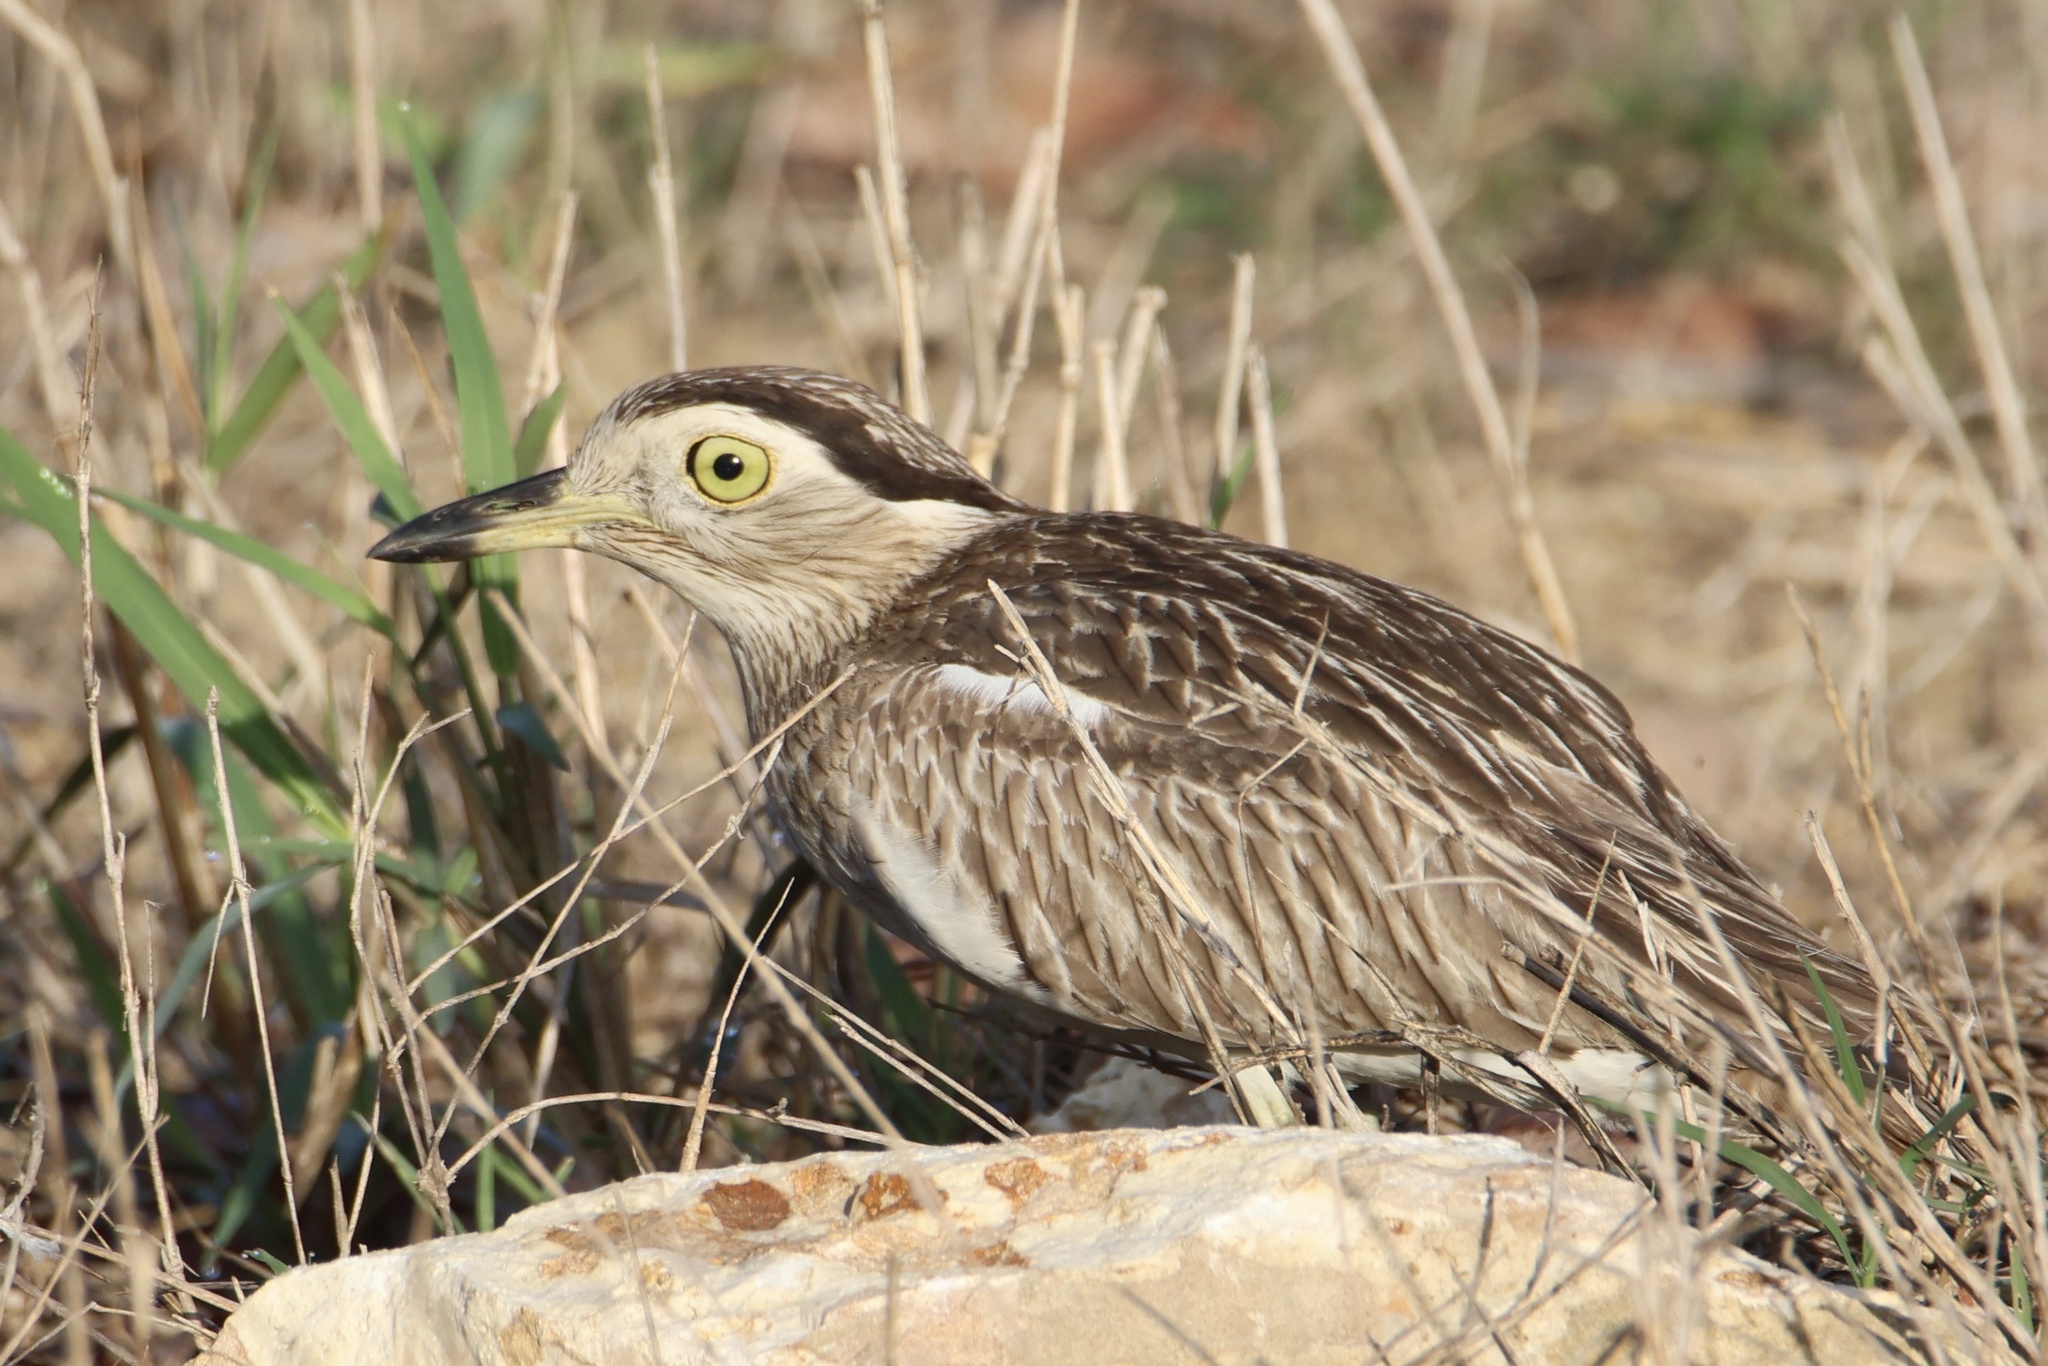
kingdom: Animalia
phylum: Chordata
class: Aves
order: Charadriiformes
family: Burhinidae
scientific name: Burhinidae
